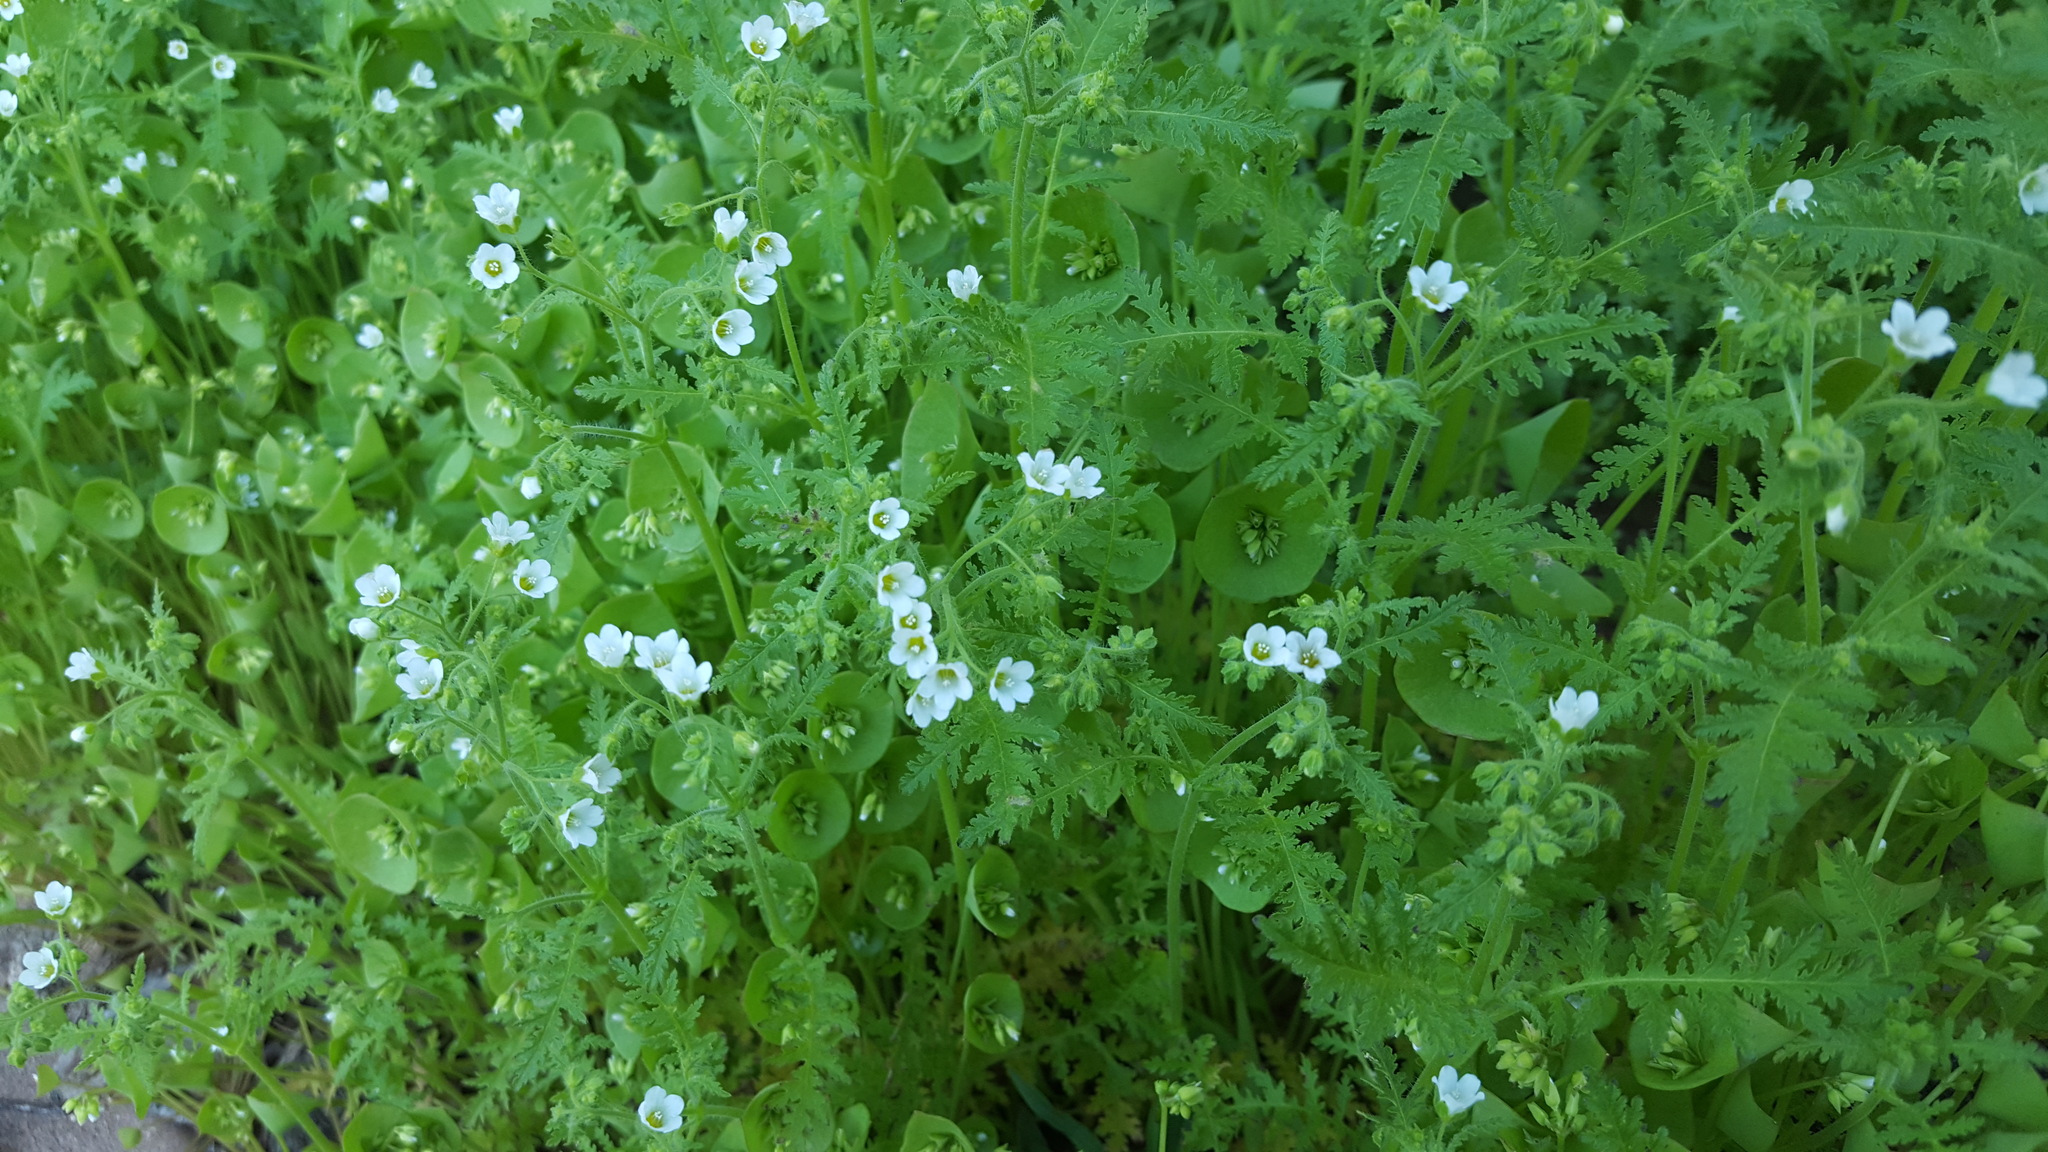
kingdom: Plantae
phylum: Tracheophyta
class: Magnoliopsida
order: Boraginales
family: Hydrophyllaceae
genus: Eucrypta
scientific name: Eucrypta chrysanthemifolia
